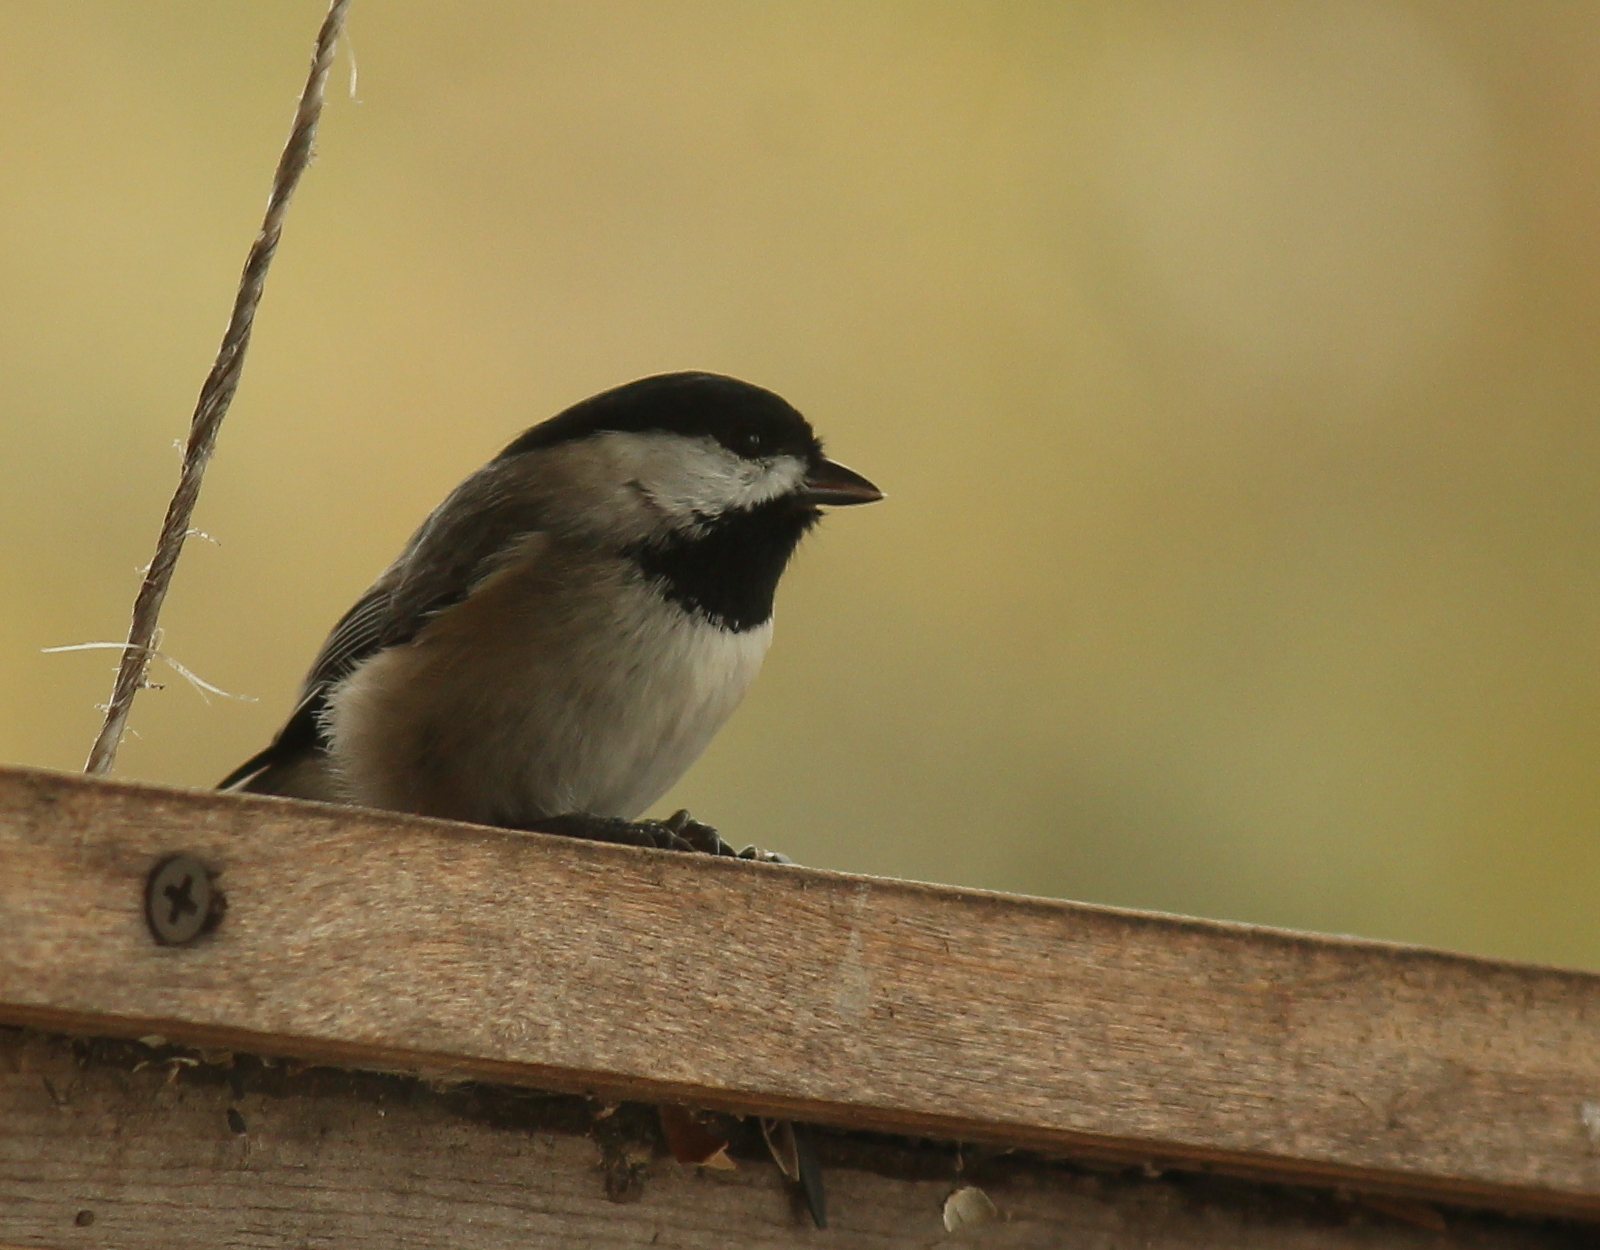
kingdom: Animalia
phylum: Chordata
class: Aves
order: Passeriformes
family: Paridae
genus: Poecile
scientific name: Poecile carolinensis
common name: Carolina chickadee
